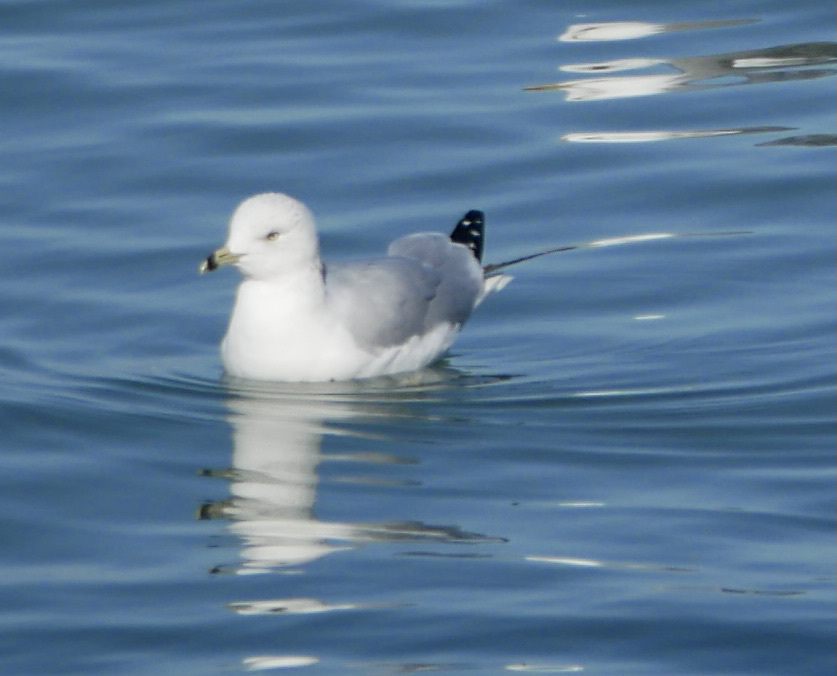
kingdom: Animalia
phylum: Chordata
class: Aves
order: Charadriiformes
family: Laridae
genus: Larus
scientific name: Larus delawarensis
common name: Ring-billed gull
